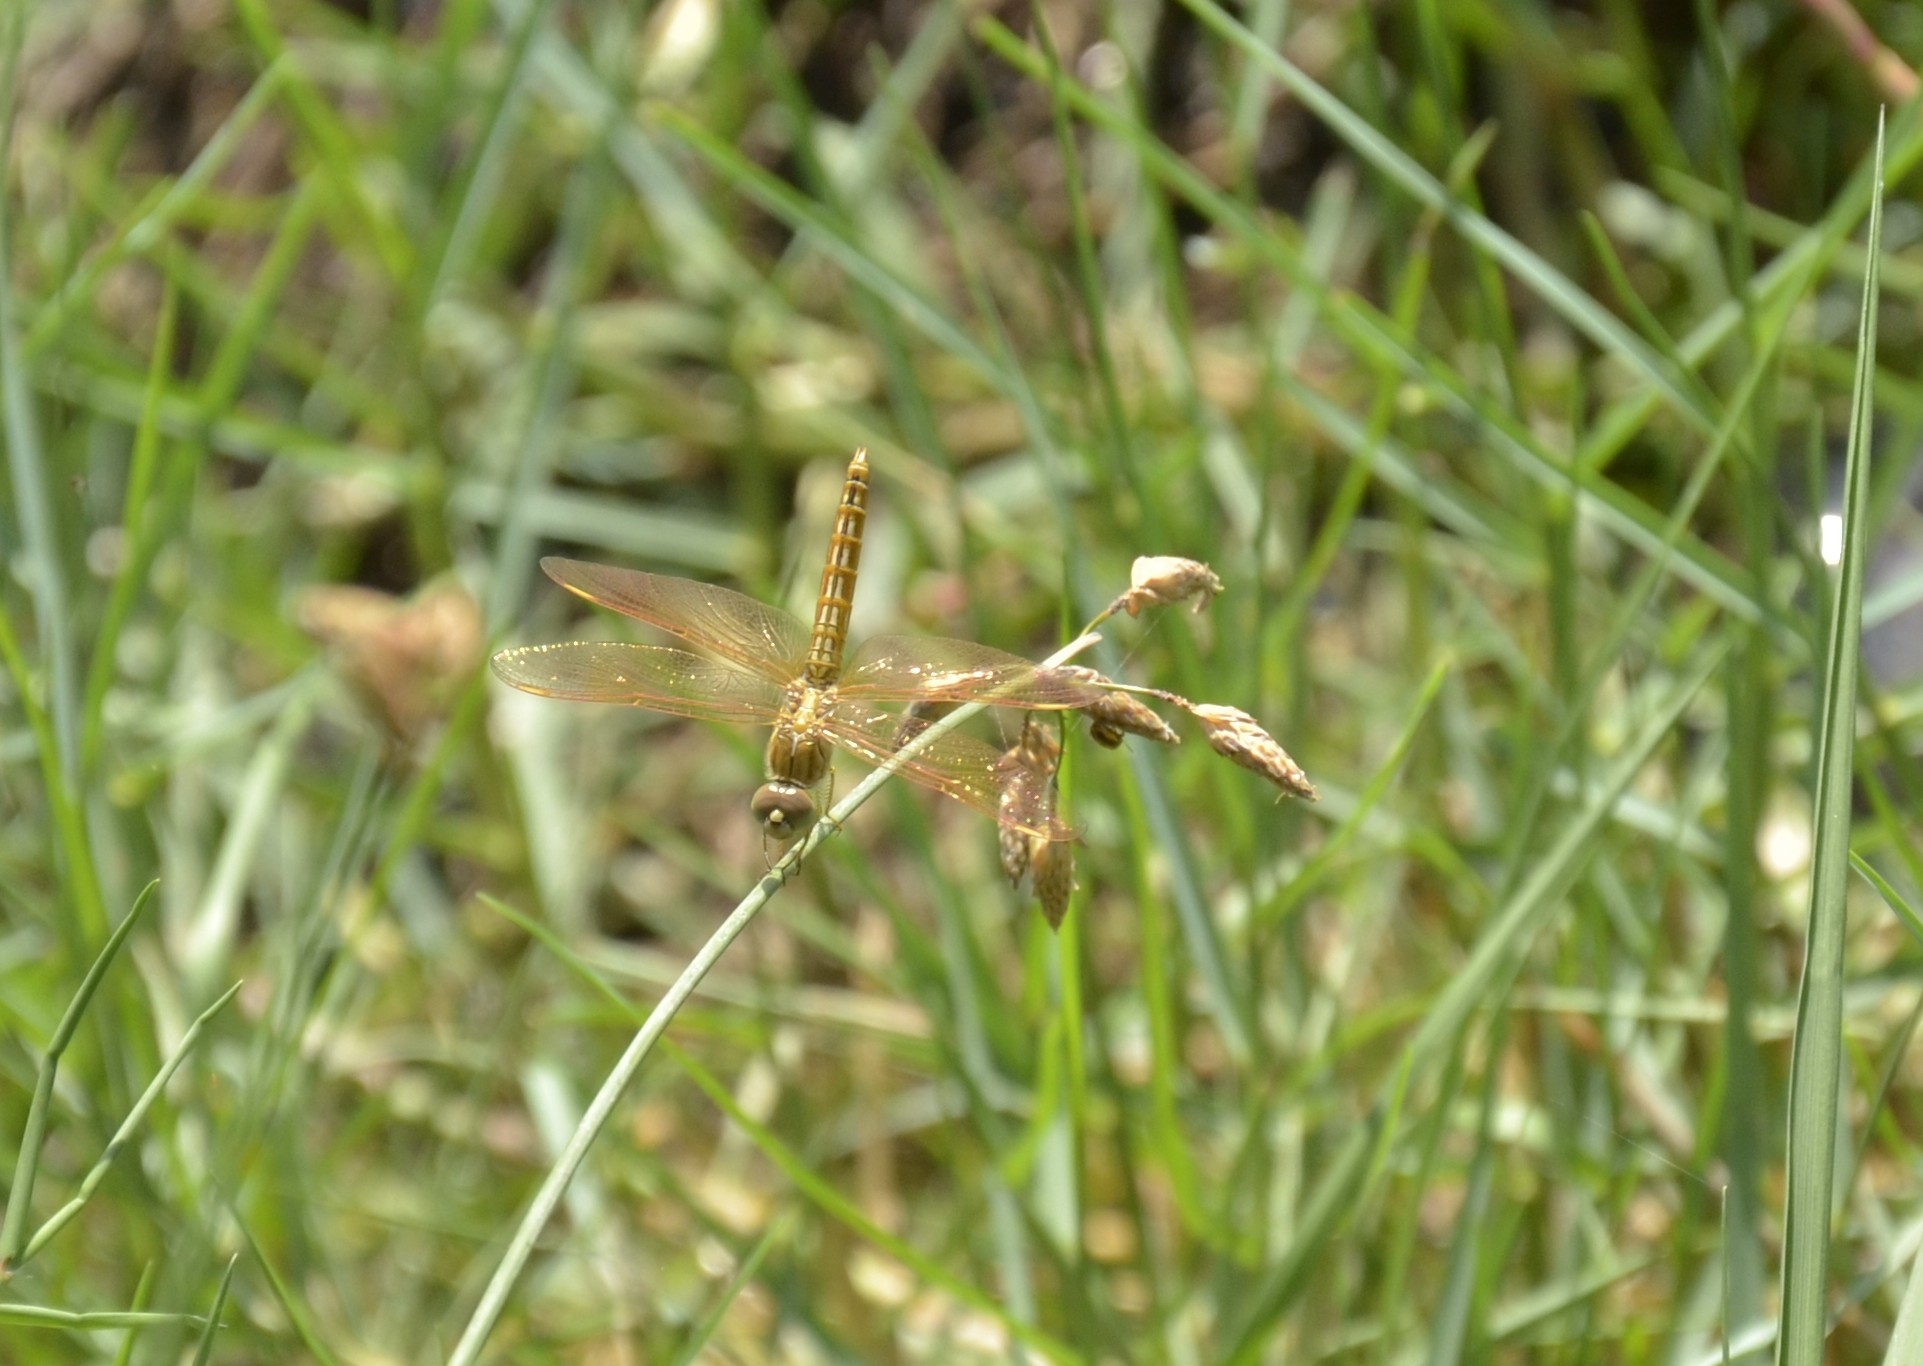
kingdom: Animalia
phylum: Arthropoda
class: Insecta
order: Odonata
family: Libellulidae
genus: Brachythemis
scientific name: Brachythemis contaminata
